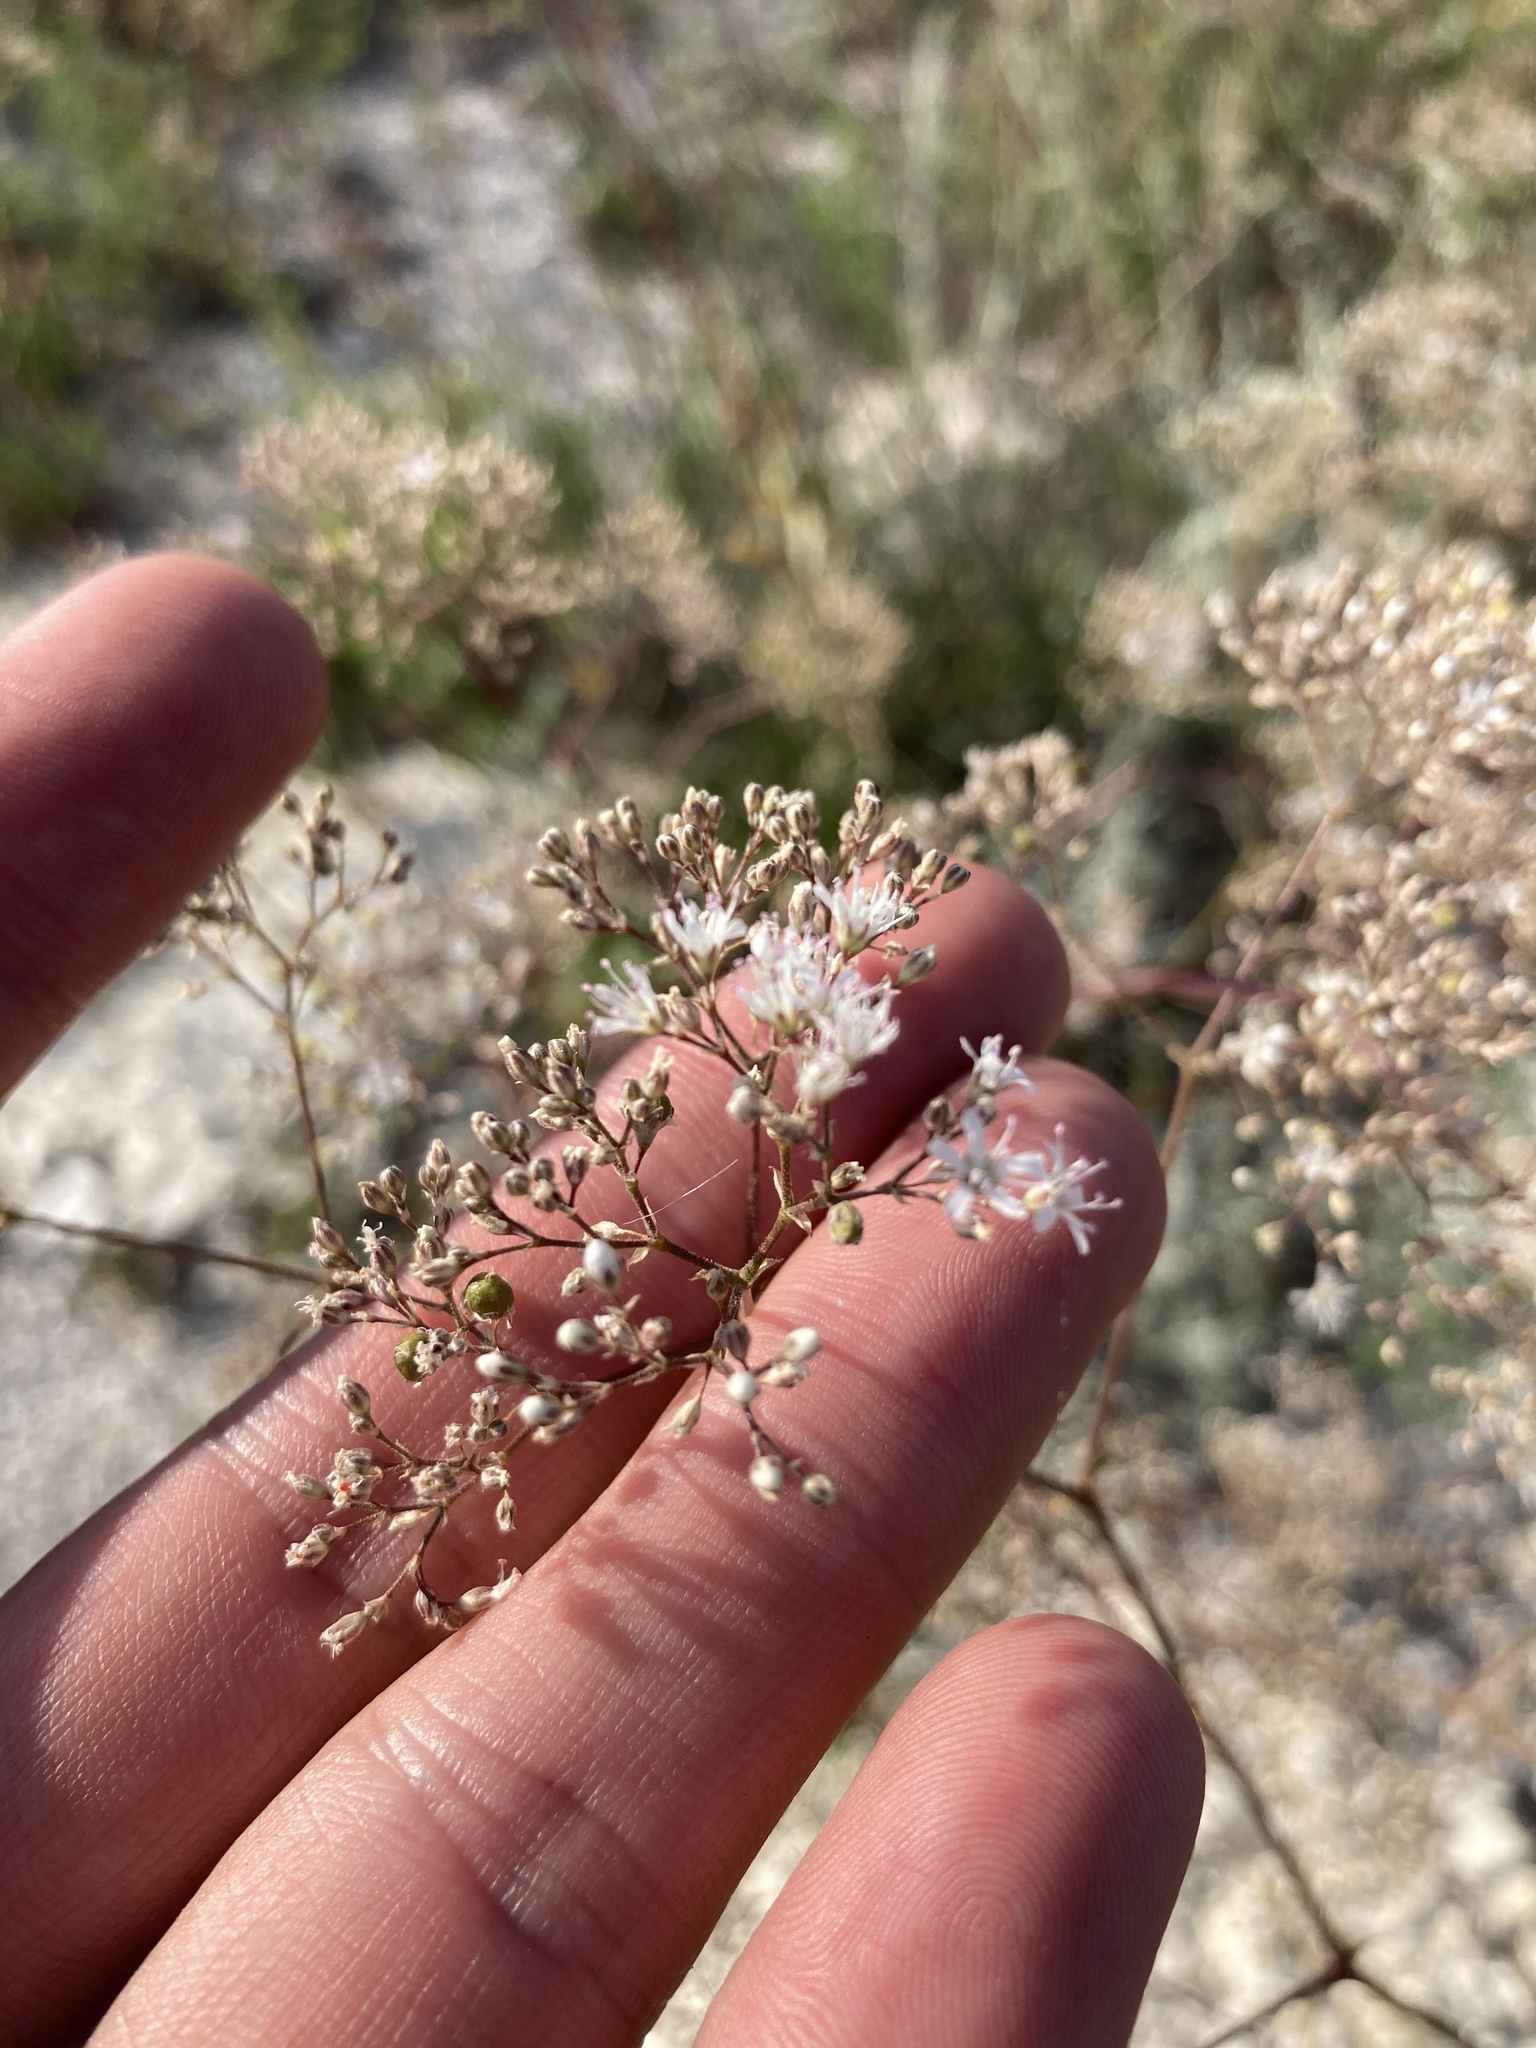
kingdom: Plantae
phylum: Tracheophyta
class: Magnoliopsida
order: Caryophyllales
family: Caryophyllaceae
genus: Gypsophila
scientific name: Gypsophila altissima
